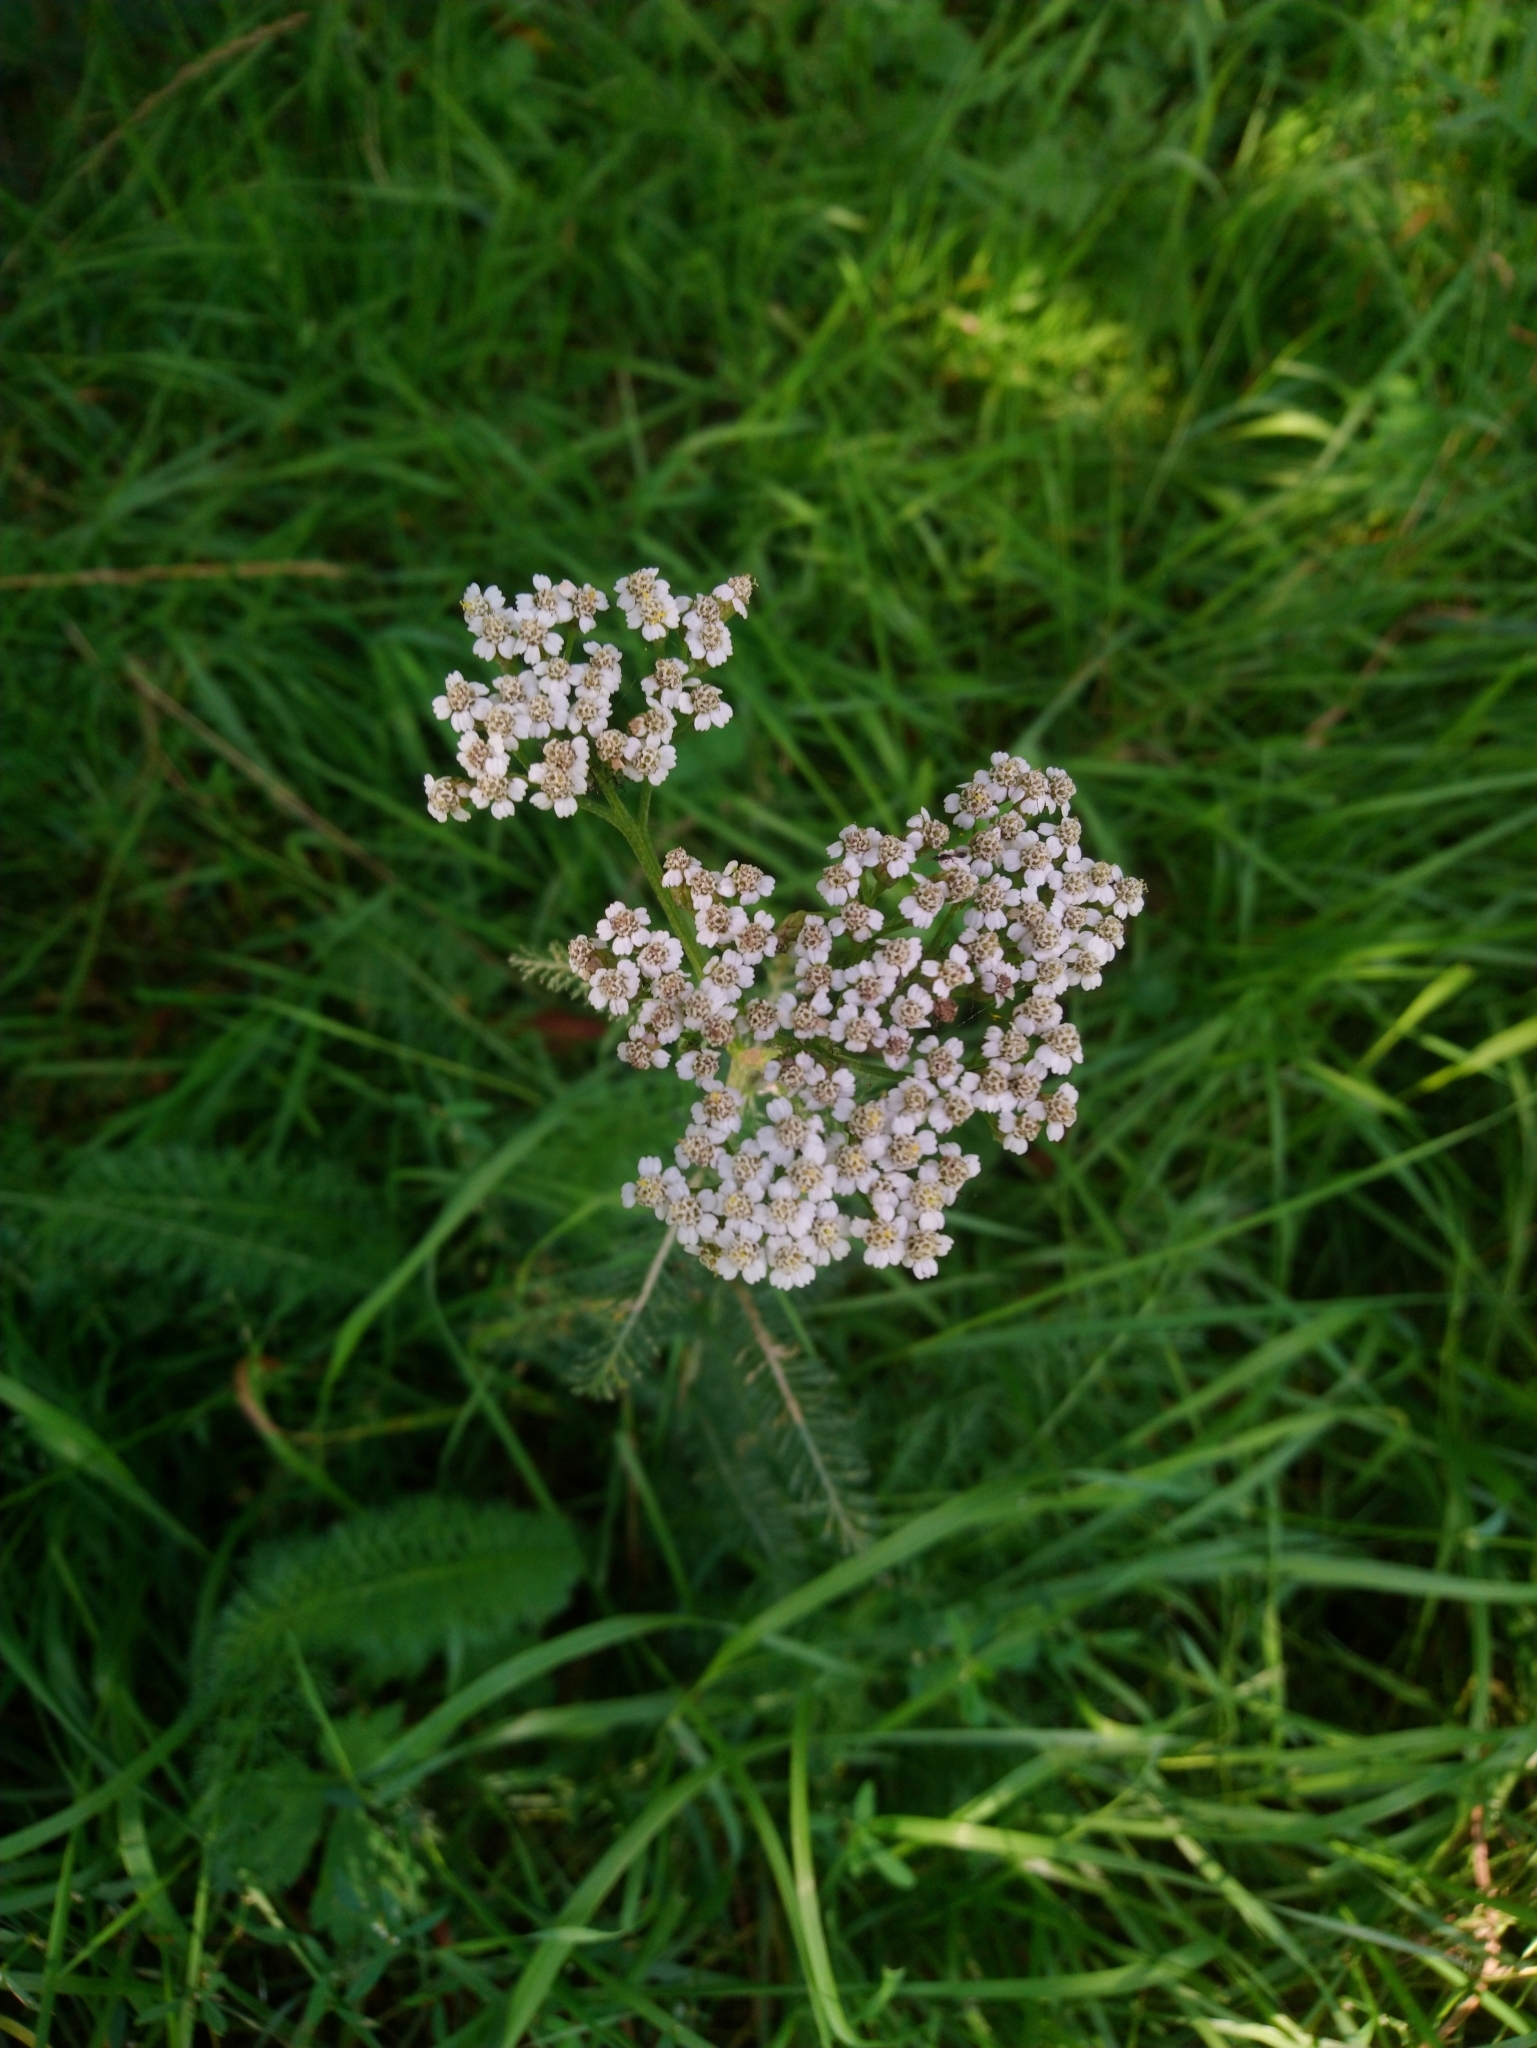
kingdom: Plantae
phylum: Tracheophyta
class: Magnoliopsida
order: Asterales
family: Asteraceae
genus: Achillea
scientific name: Achillea millefolium
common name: Yarrow
